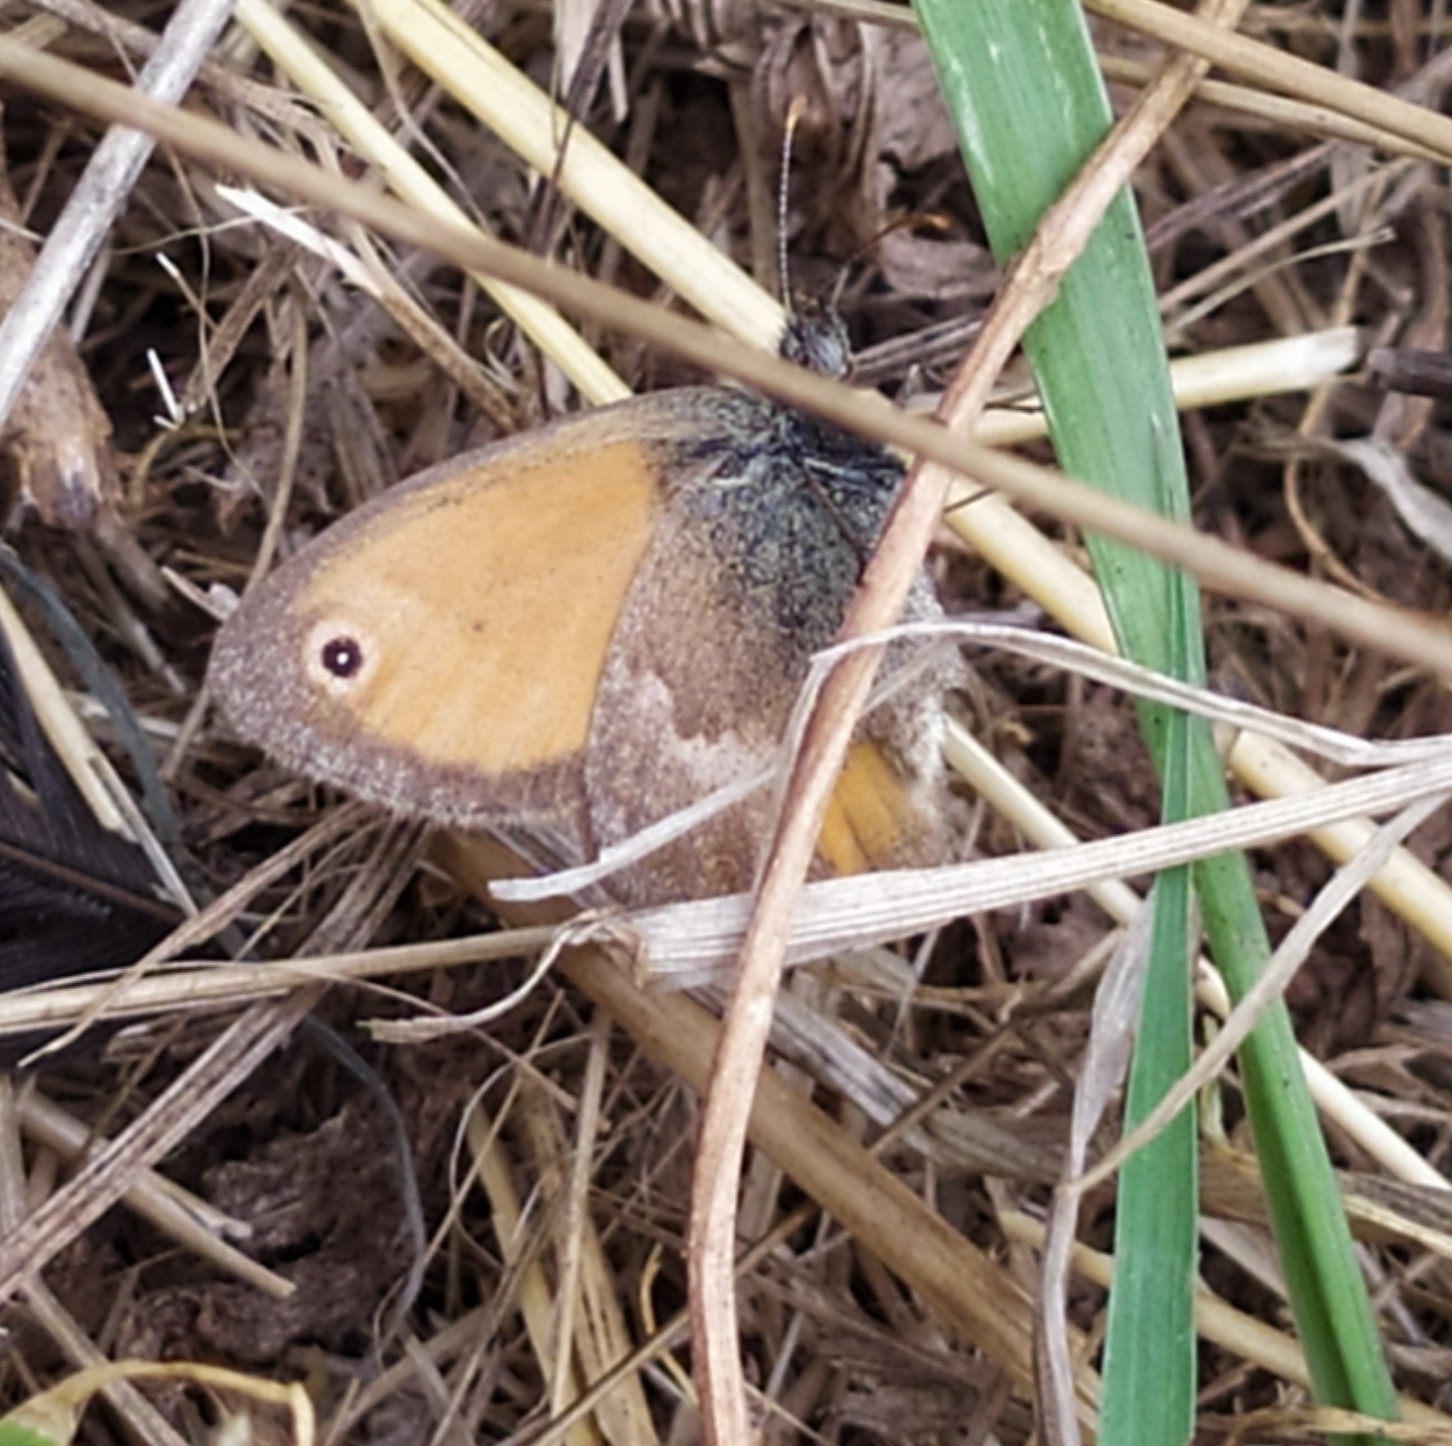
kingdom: Animalia
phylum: Arthropoda
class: Insecta
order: Lepidoptera
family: Nymphalidae
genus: Coenonympha
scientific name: Coenonympha pamphilus
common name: Small heath
